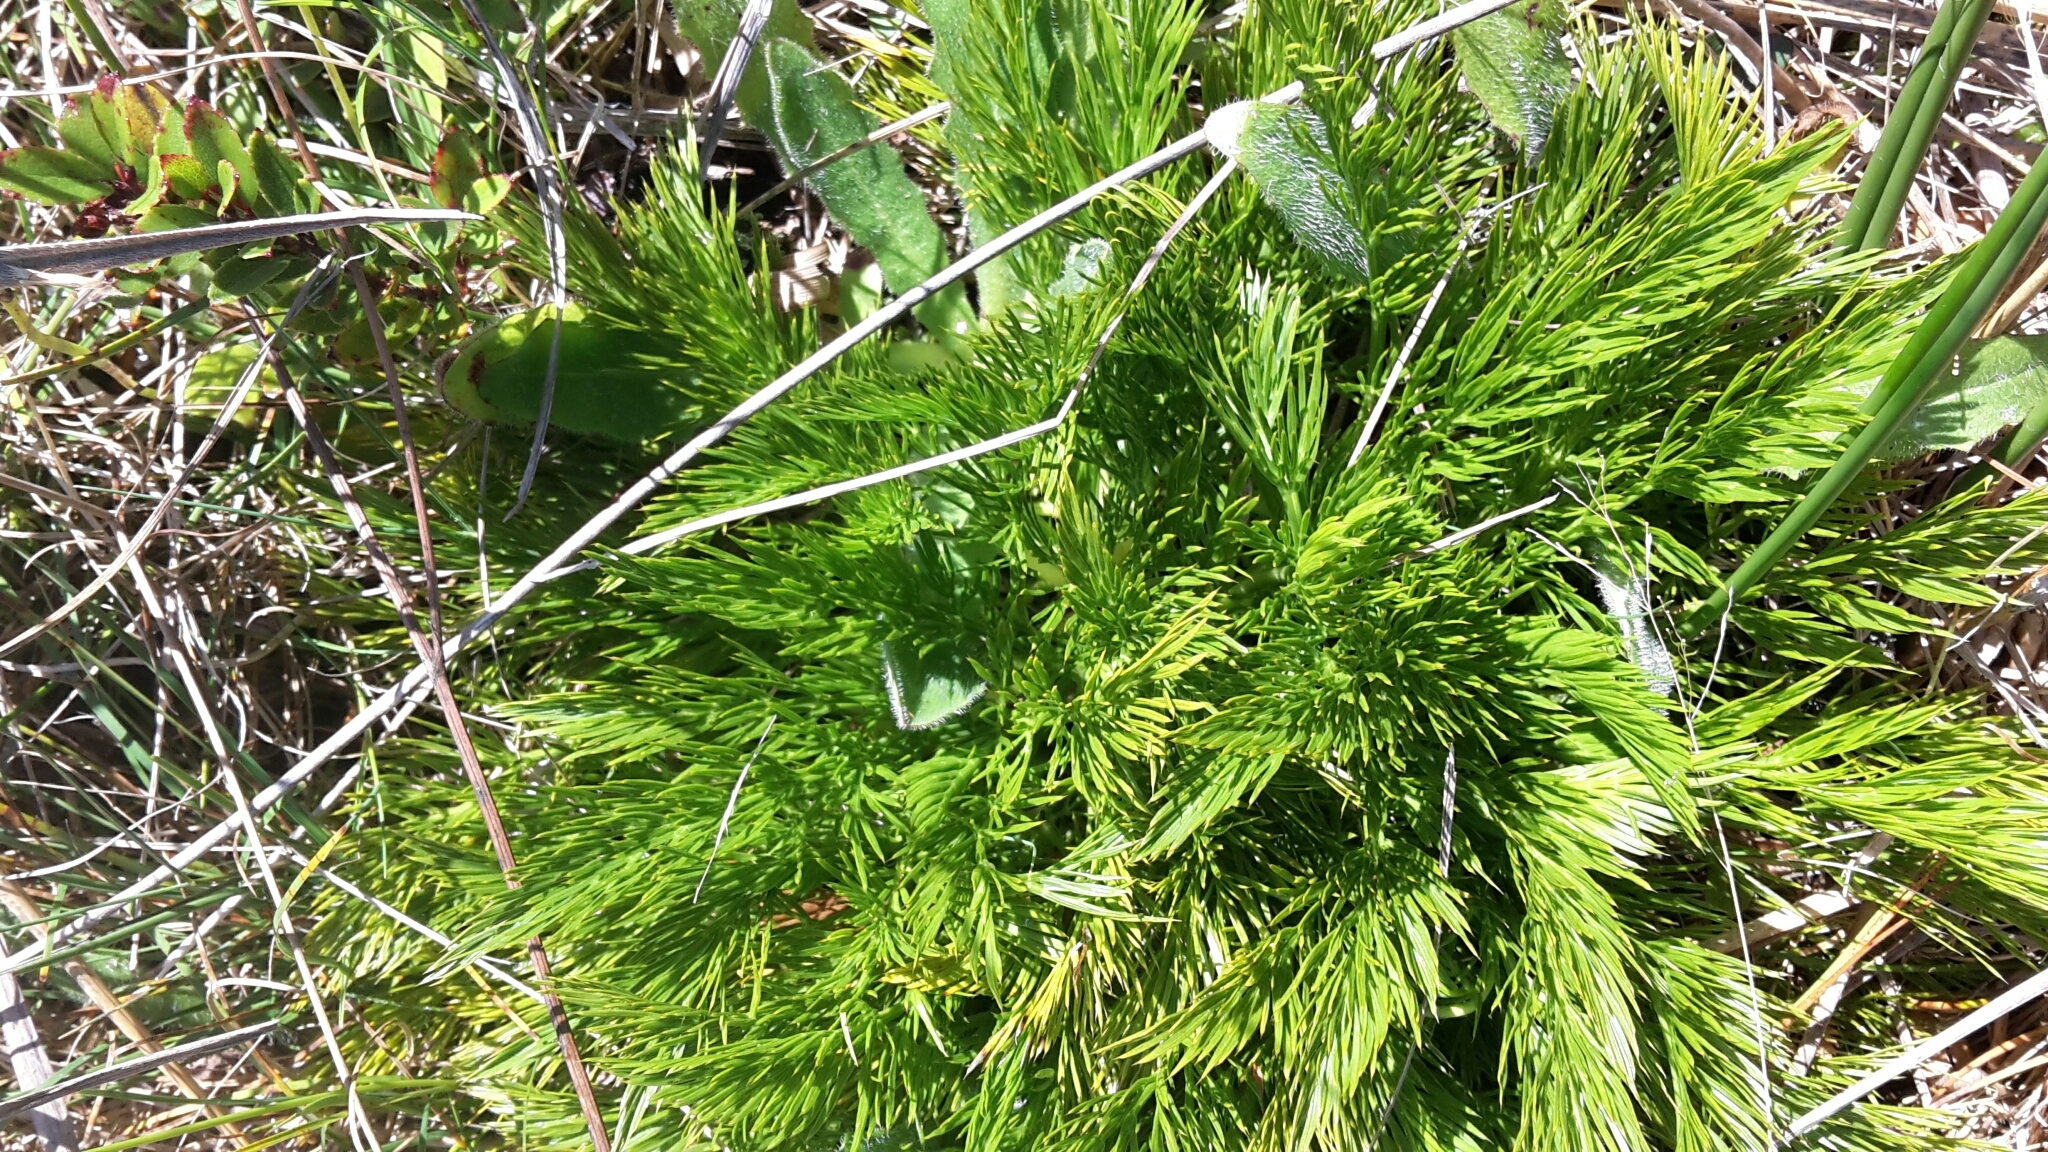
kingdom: Plantae
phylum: Tracheophyta
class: Magnoliopsida
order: Apiales
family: Apiaceae
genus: Aciphylla
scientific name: Aciphylla dissecta
